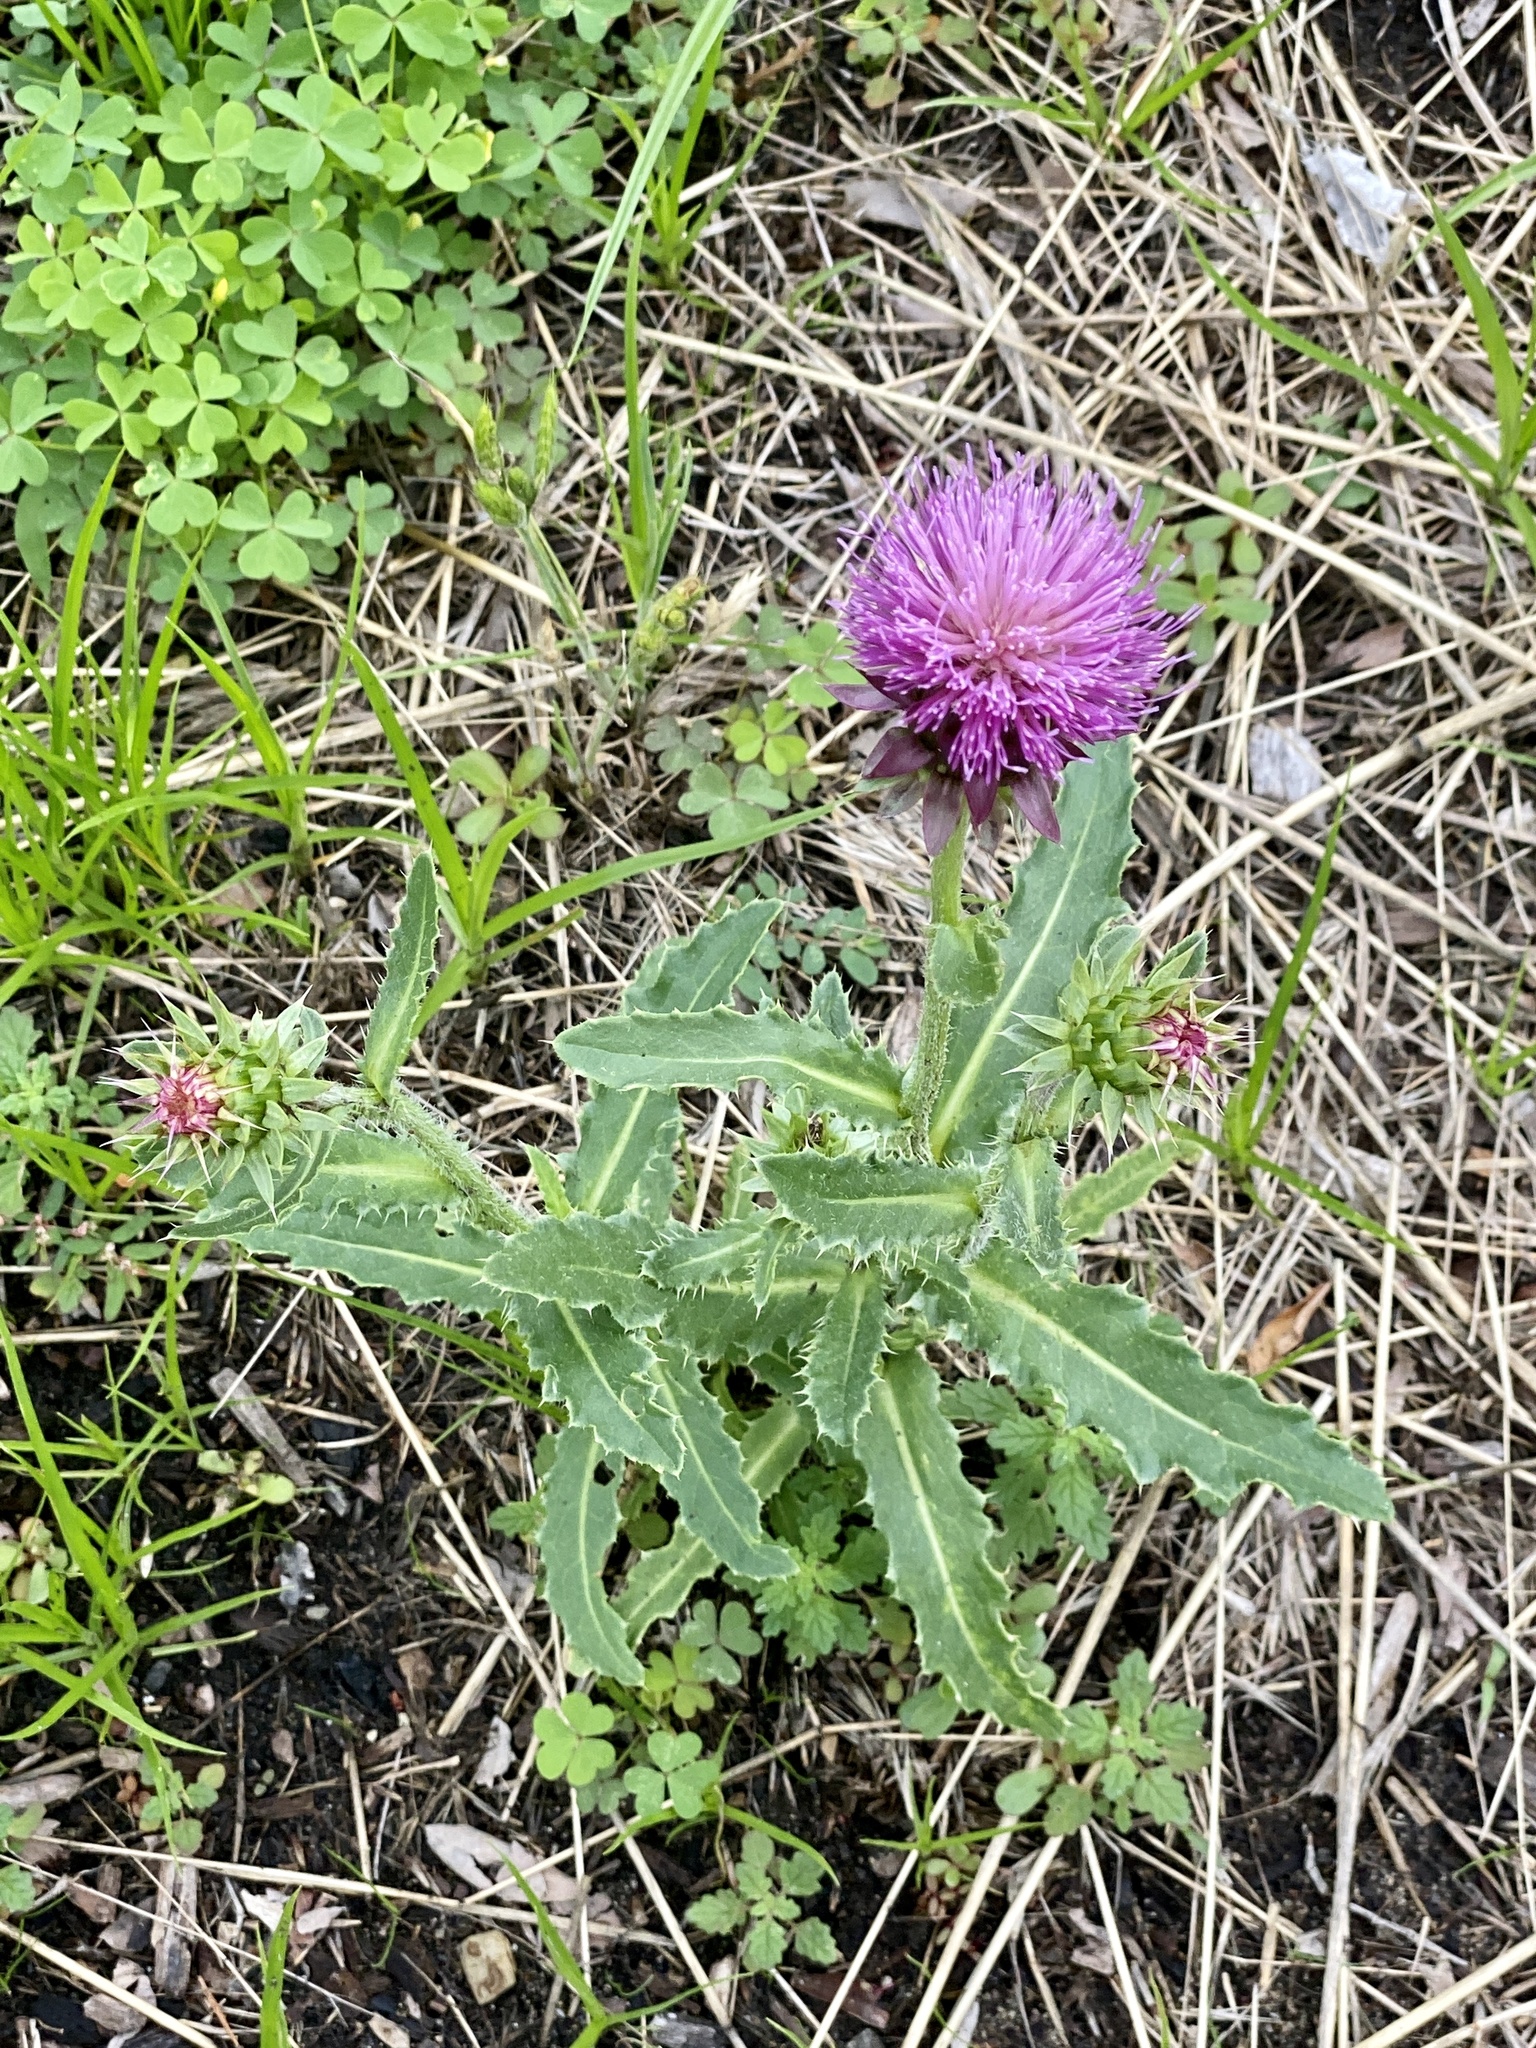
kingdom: Plantae
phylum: Tracheophyta
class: Magnoliopsida
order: Asterales
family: Asteraceae
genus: Carduus
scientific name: Carduus nutans
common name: Musk thistle
